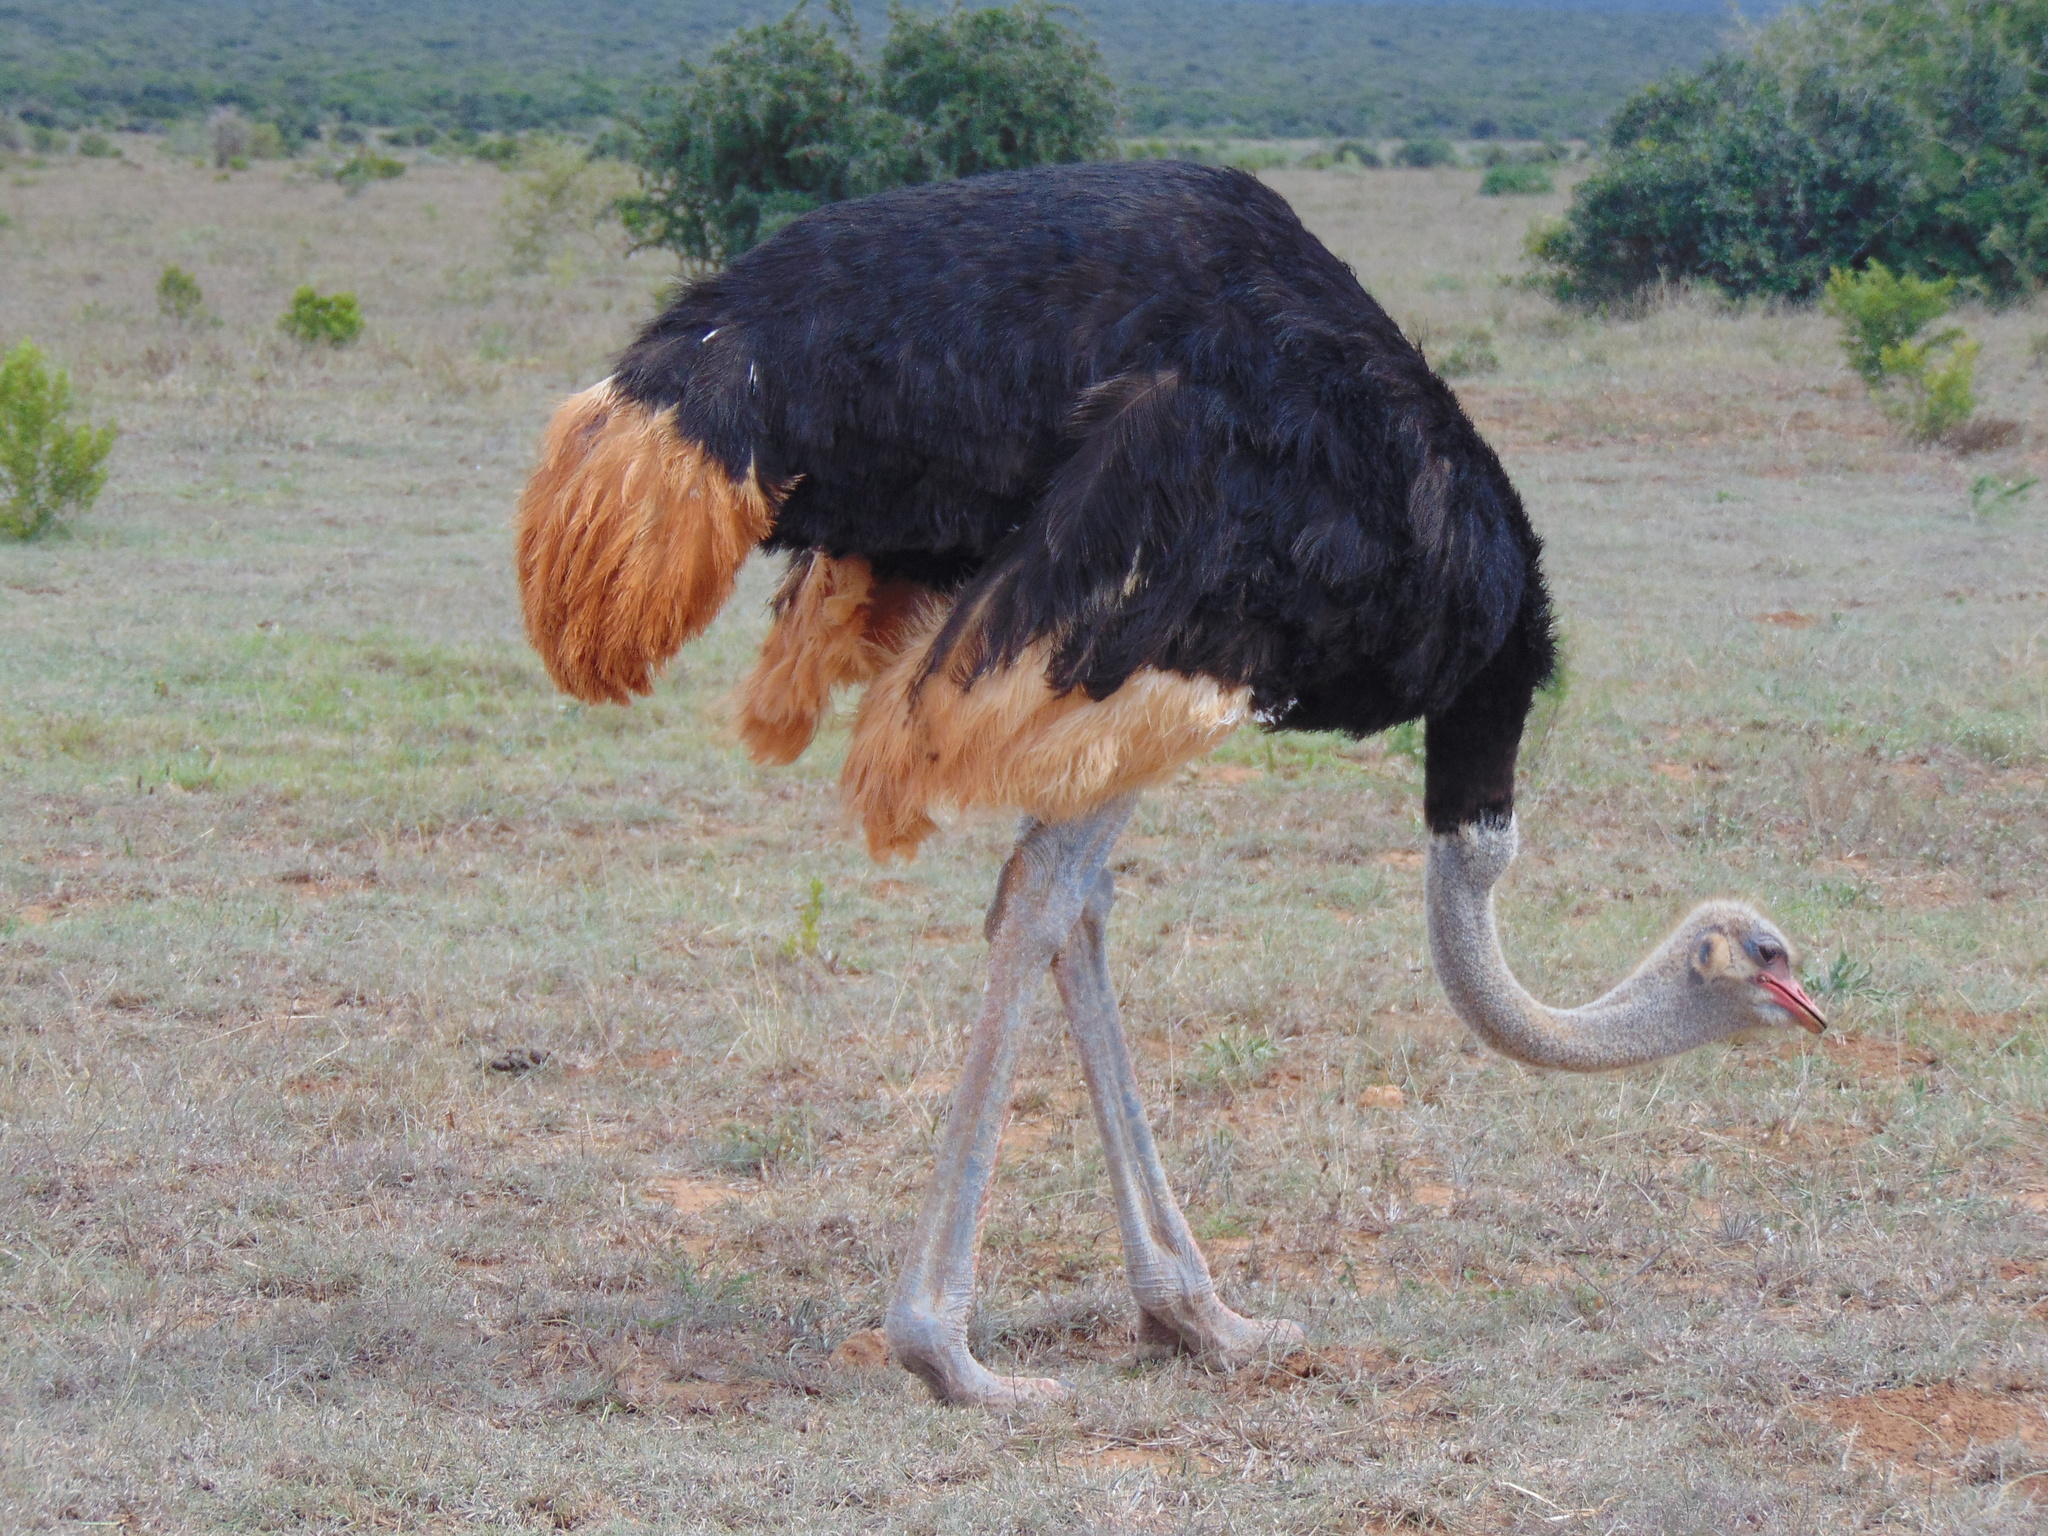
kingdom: Animalia
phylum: Chordata
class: Aves
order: Struthioniformes
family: Struthionidae
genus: Struthio
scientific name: Struthio camelus
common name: Common ostrich
